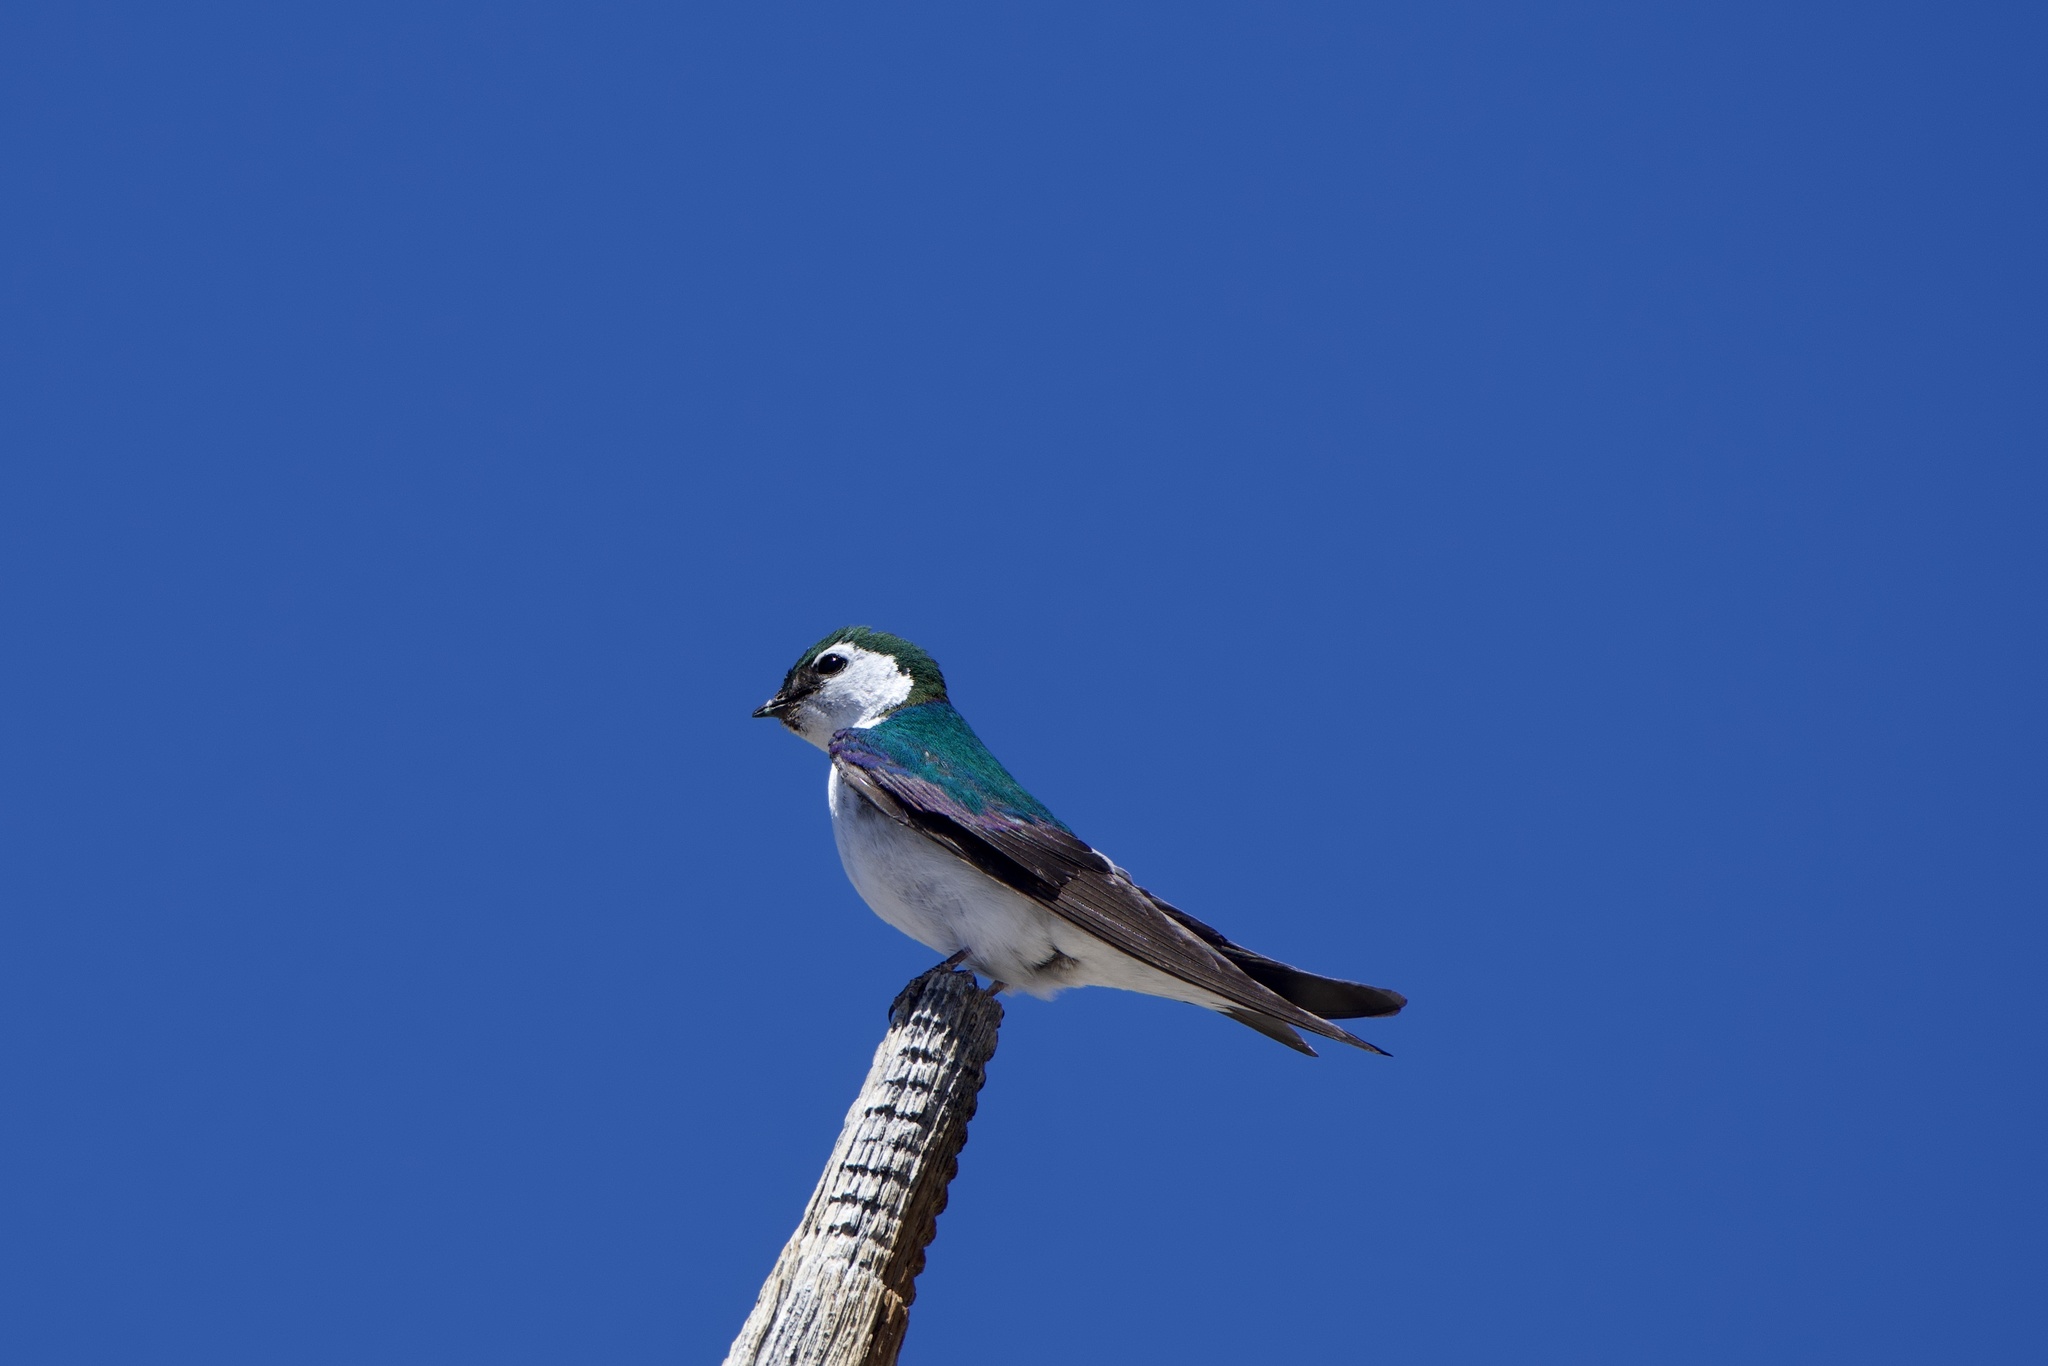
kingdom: Animalia
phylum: Chordata
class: Aves
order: Passeriformes
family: Hirundinidae
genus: Tachycineta
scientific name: Tachycineta thalassina
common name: Violet-green swallow
